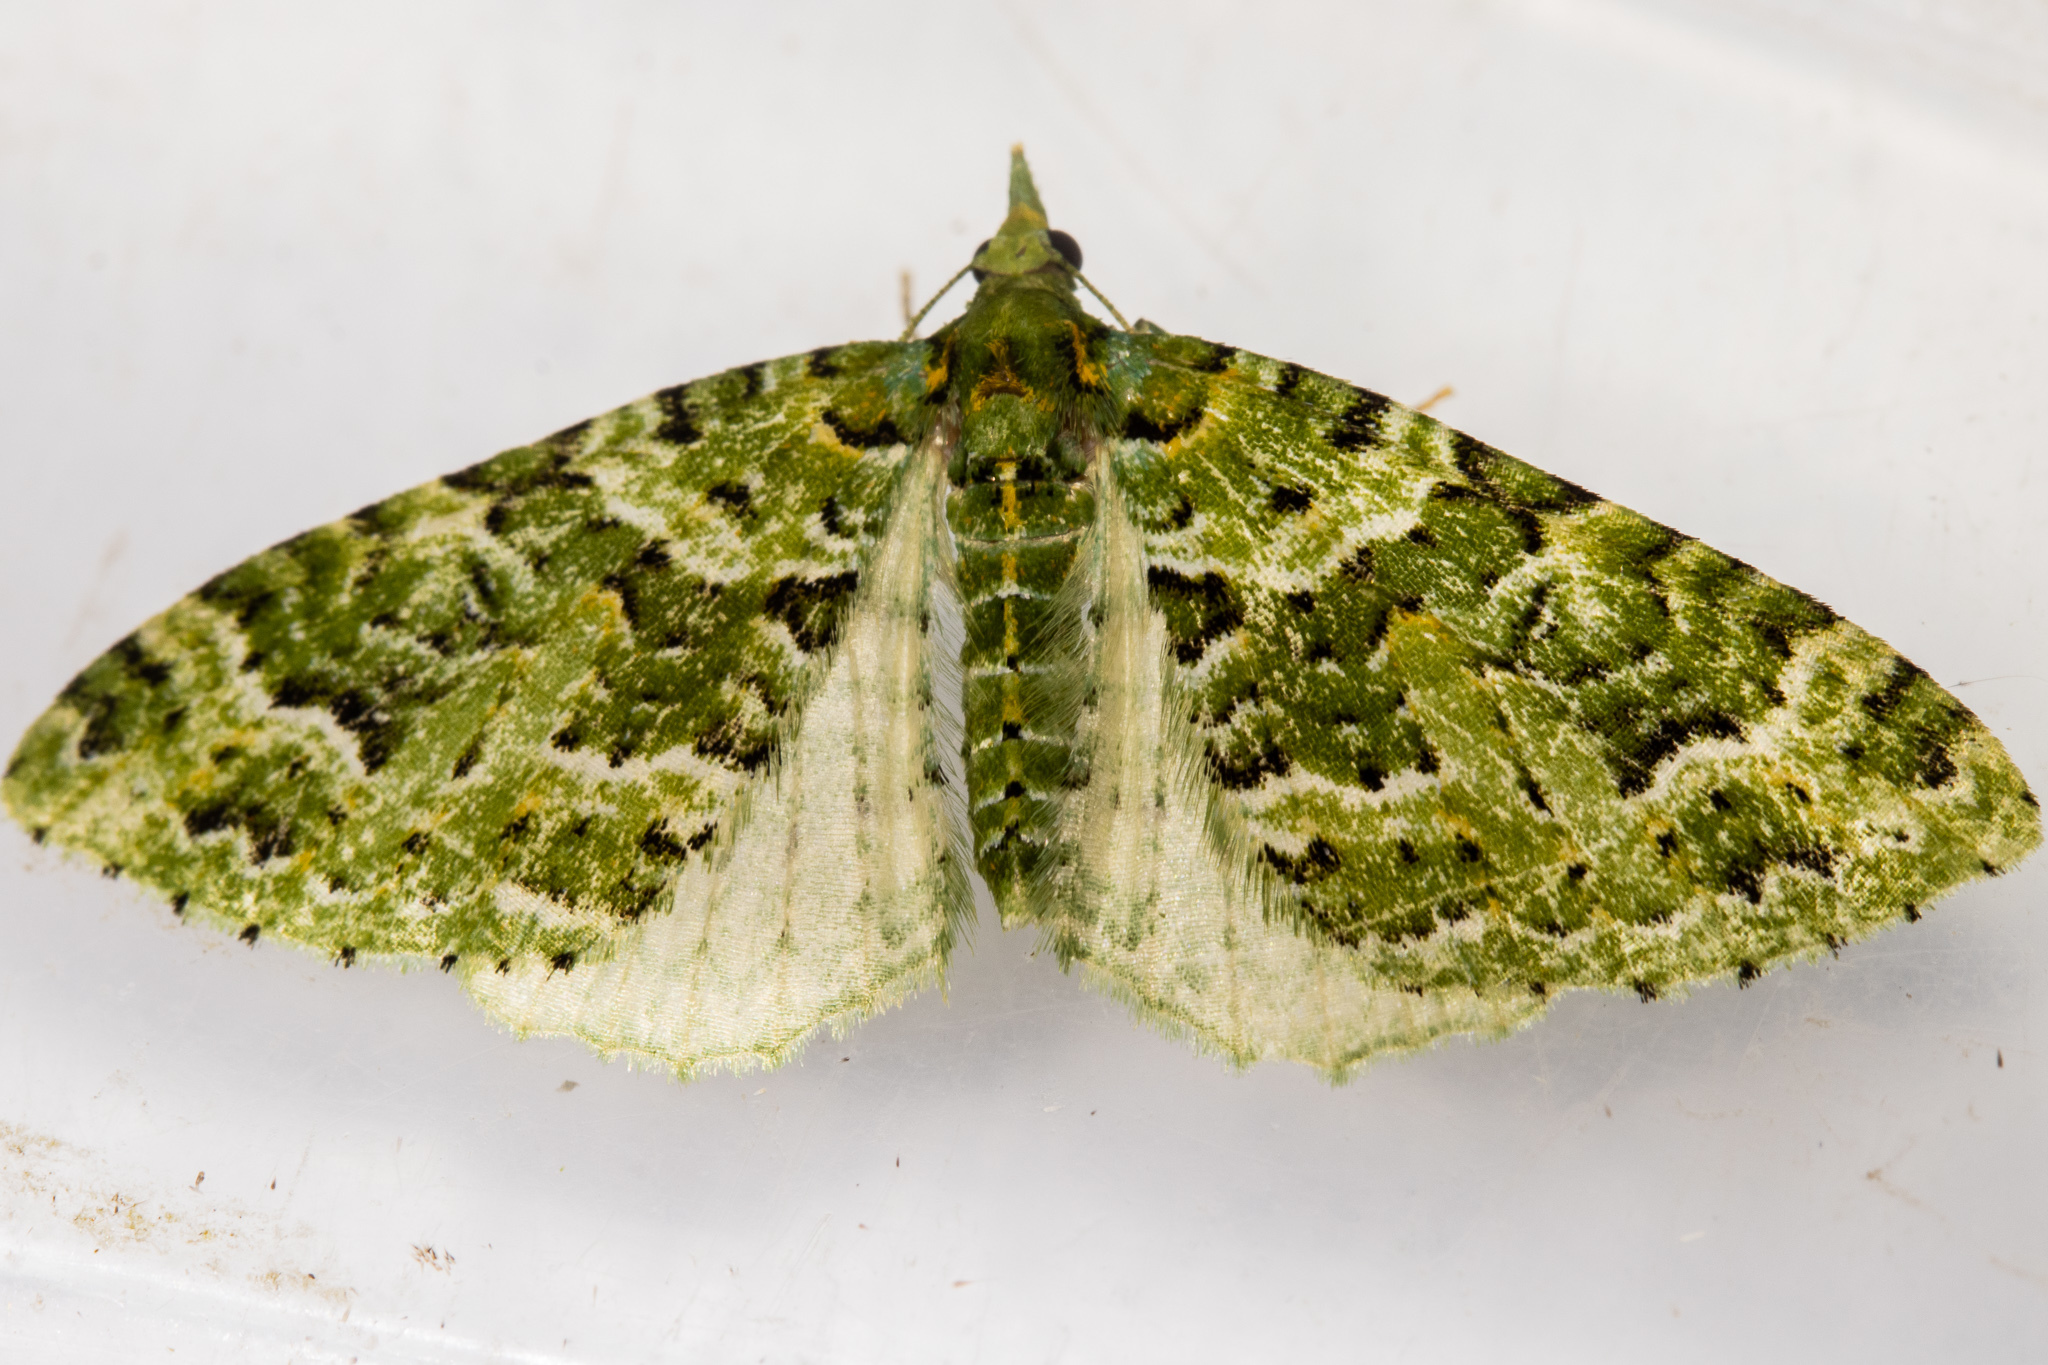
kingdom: Animalia
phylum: Arthropoda
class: Insecta
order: Lepidoptera
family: Geometridae
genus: Pasiphila
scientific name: Pasiphila melochlora
